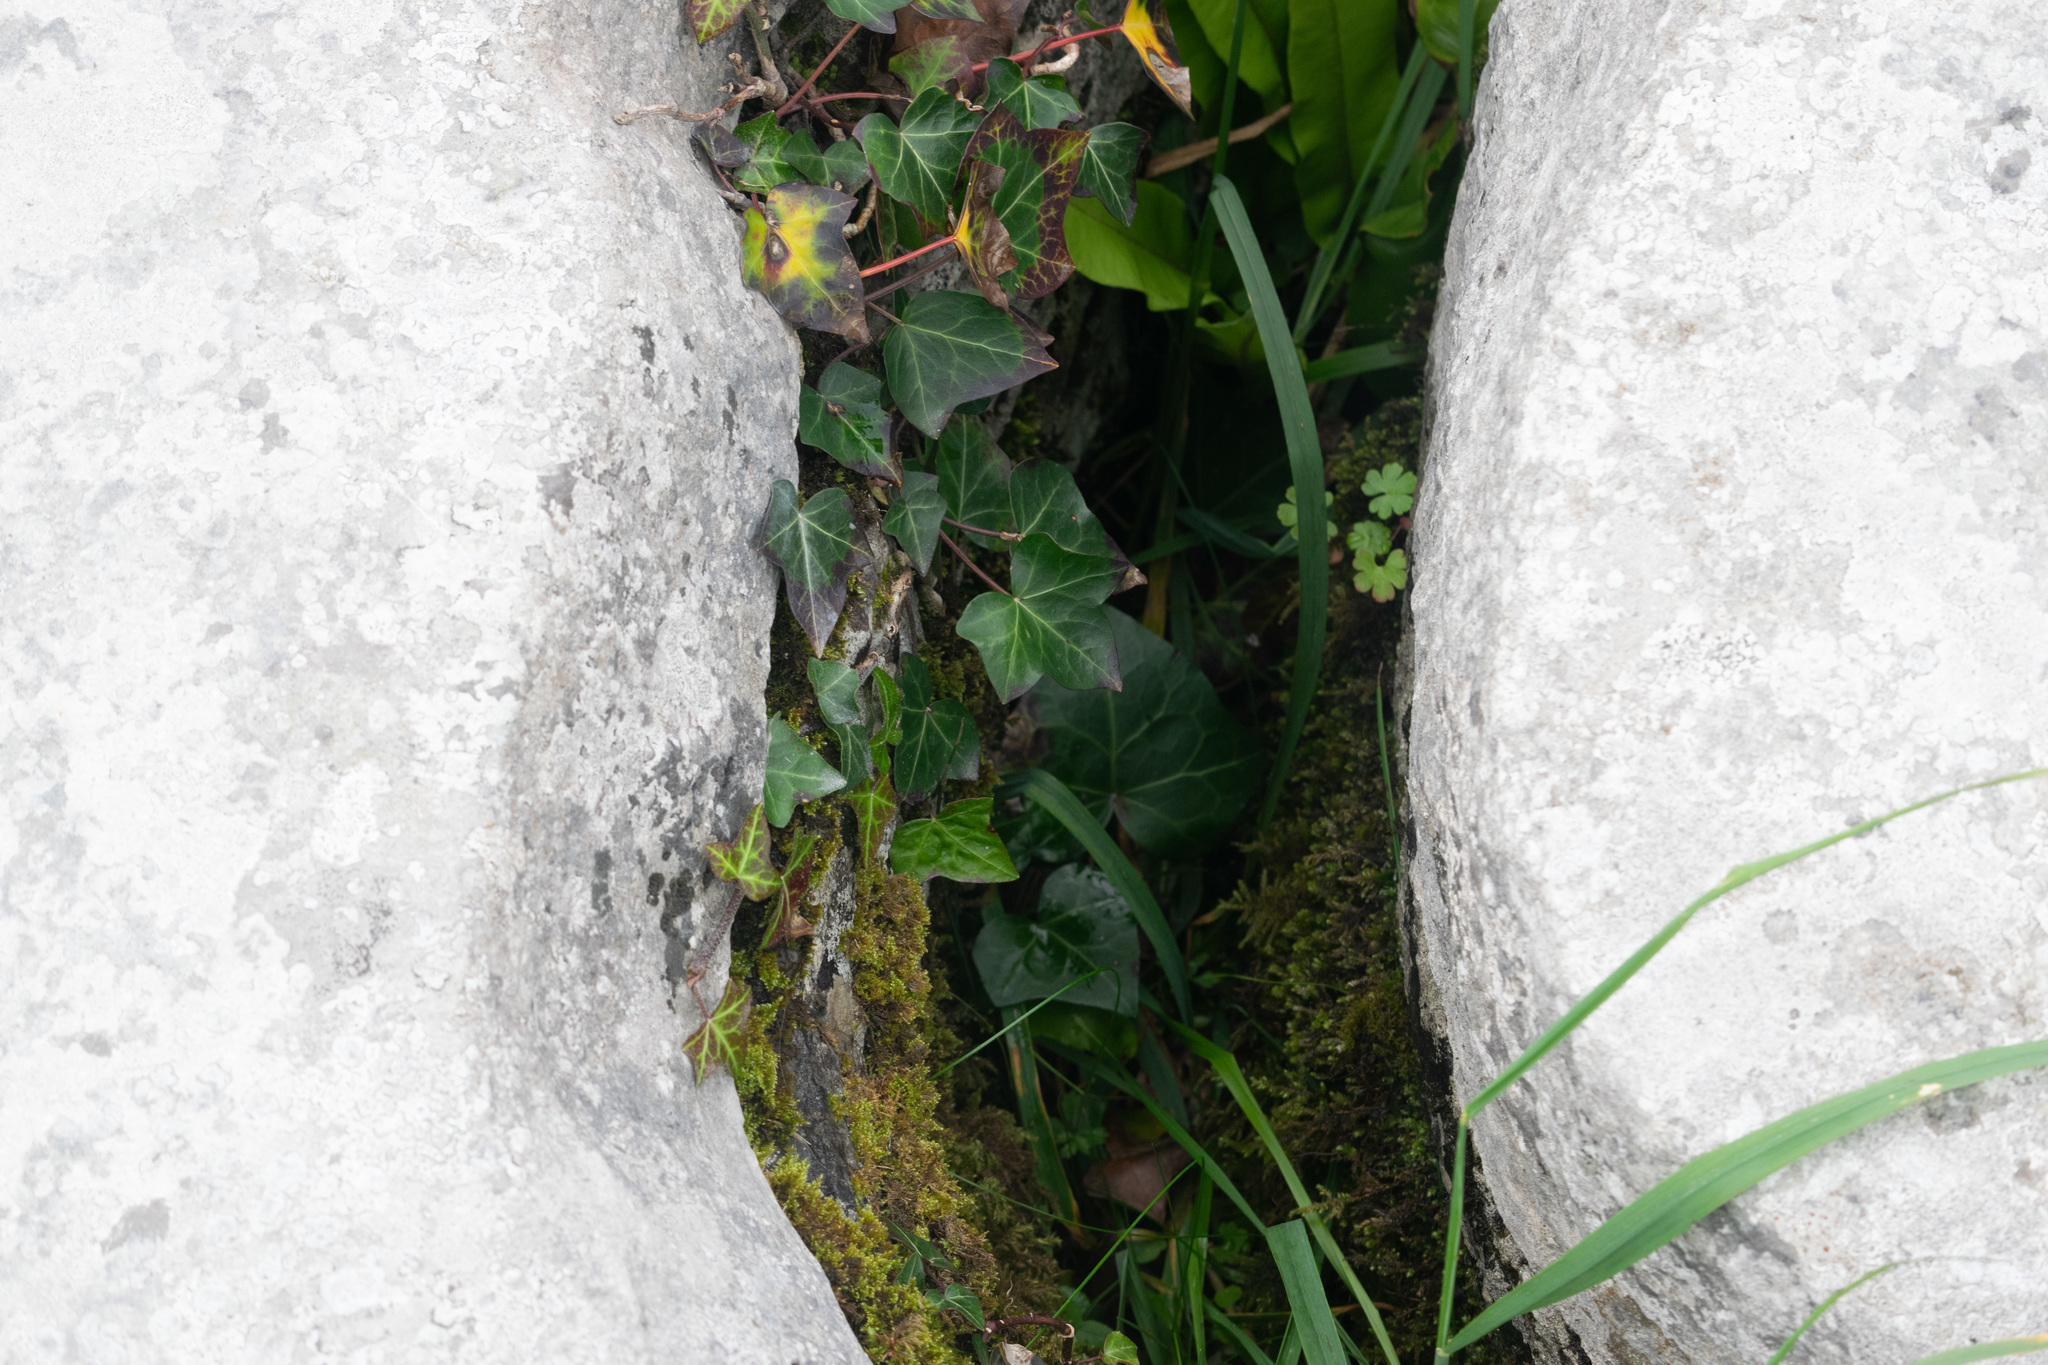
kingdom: Plantae
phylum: Tracheophyta
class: Magnoliopsida
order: Apiales
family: Araliaceae
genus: Hedera
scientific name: Hedera helix
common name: Ivy
